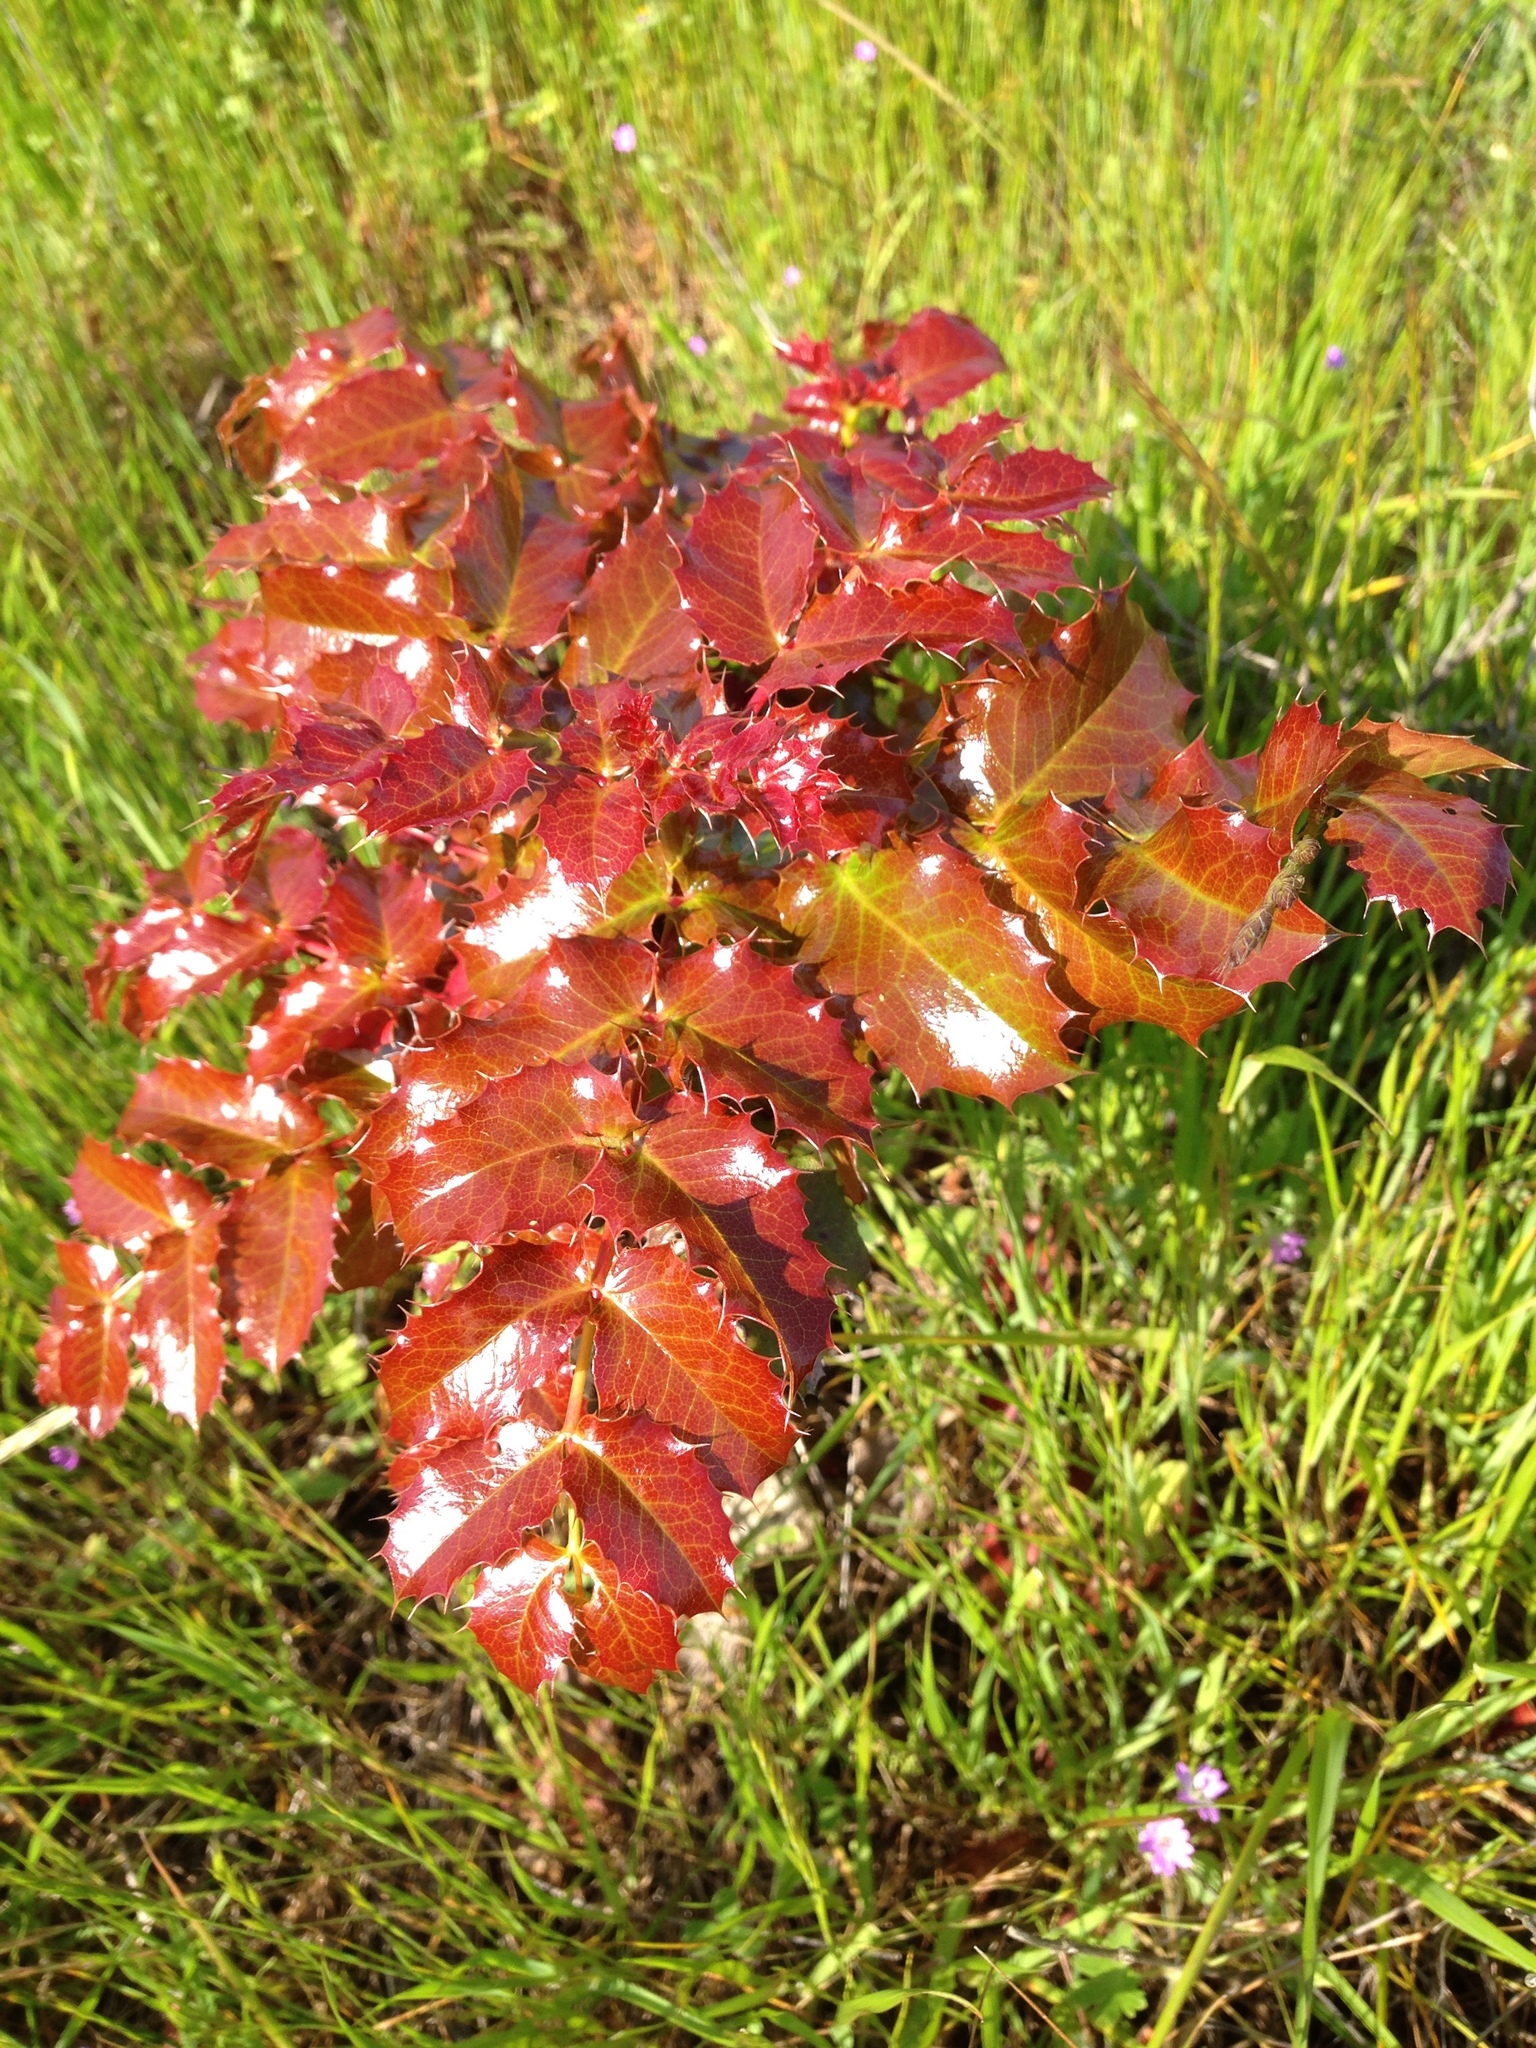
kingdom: Plantae
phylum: Tracheophyta
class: Magnoliopsida
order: Ranunculales
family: Berberidaceae
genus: Mahonia
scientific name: Mahonia
